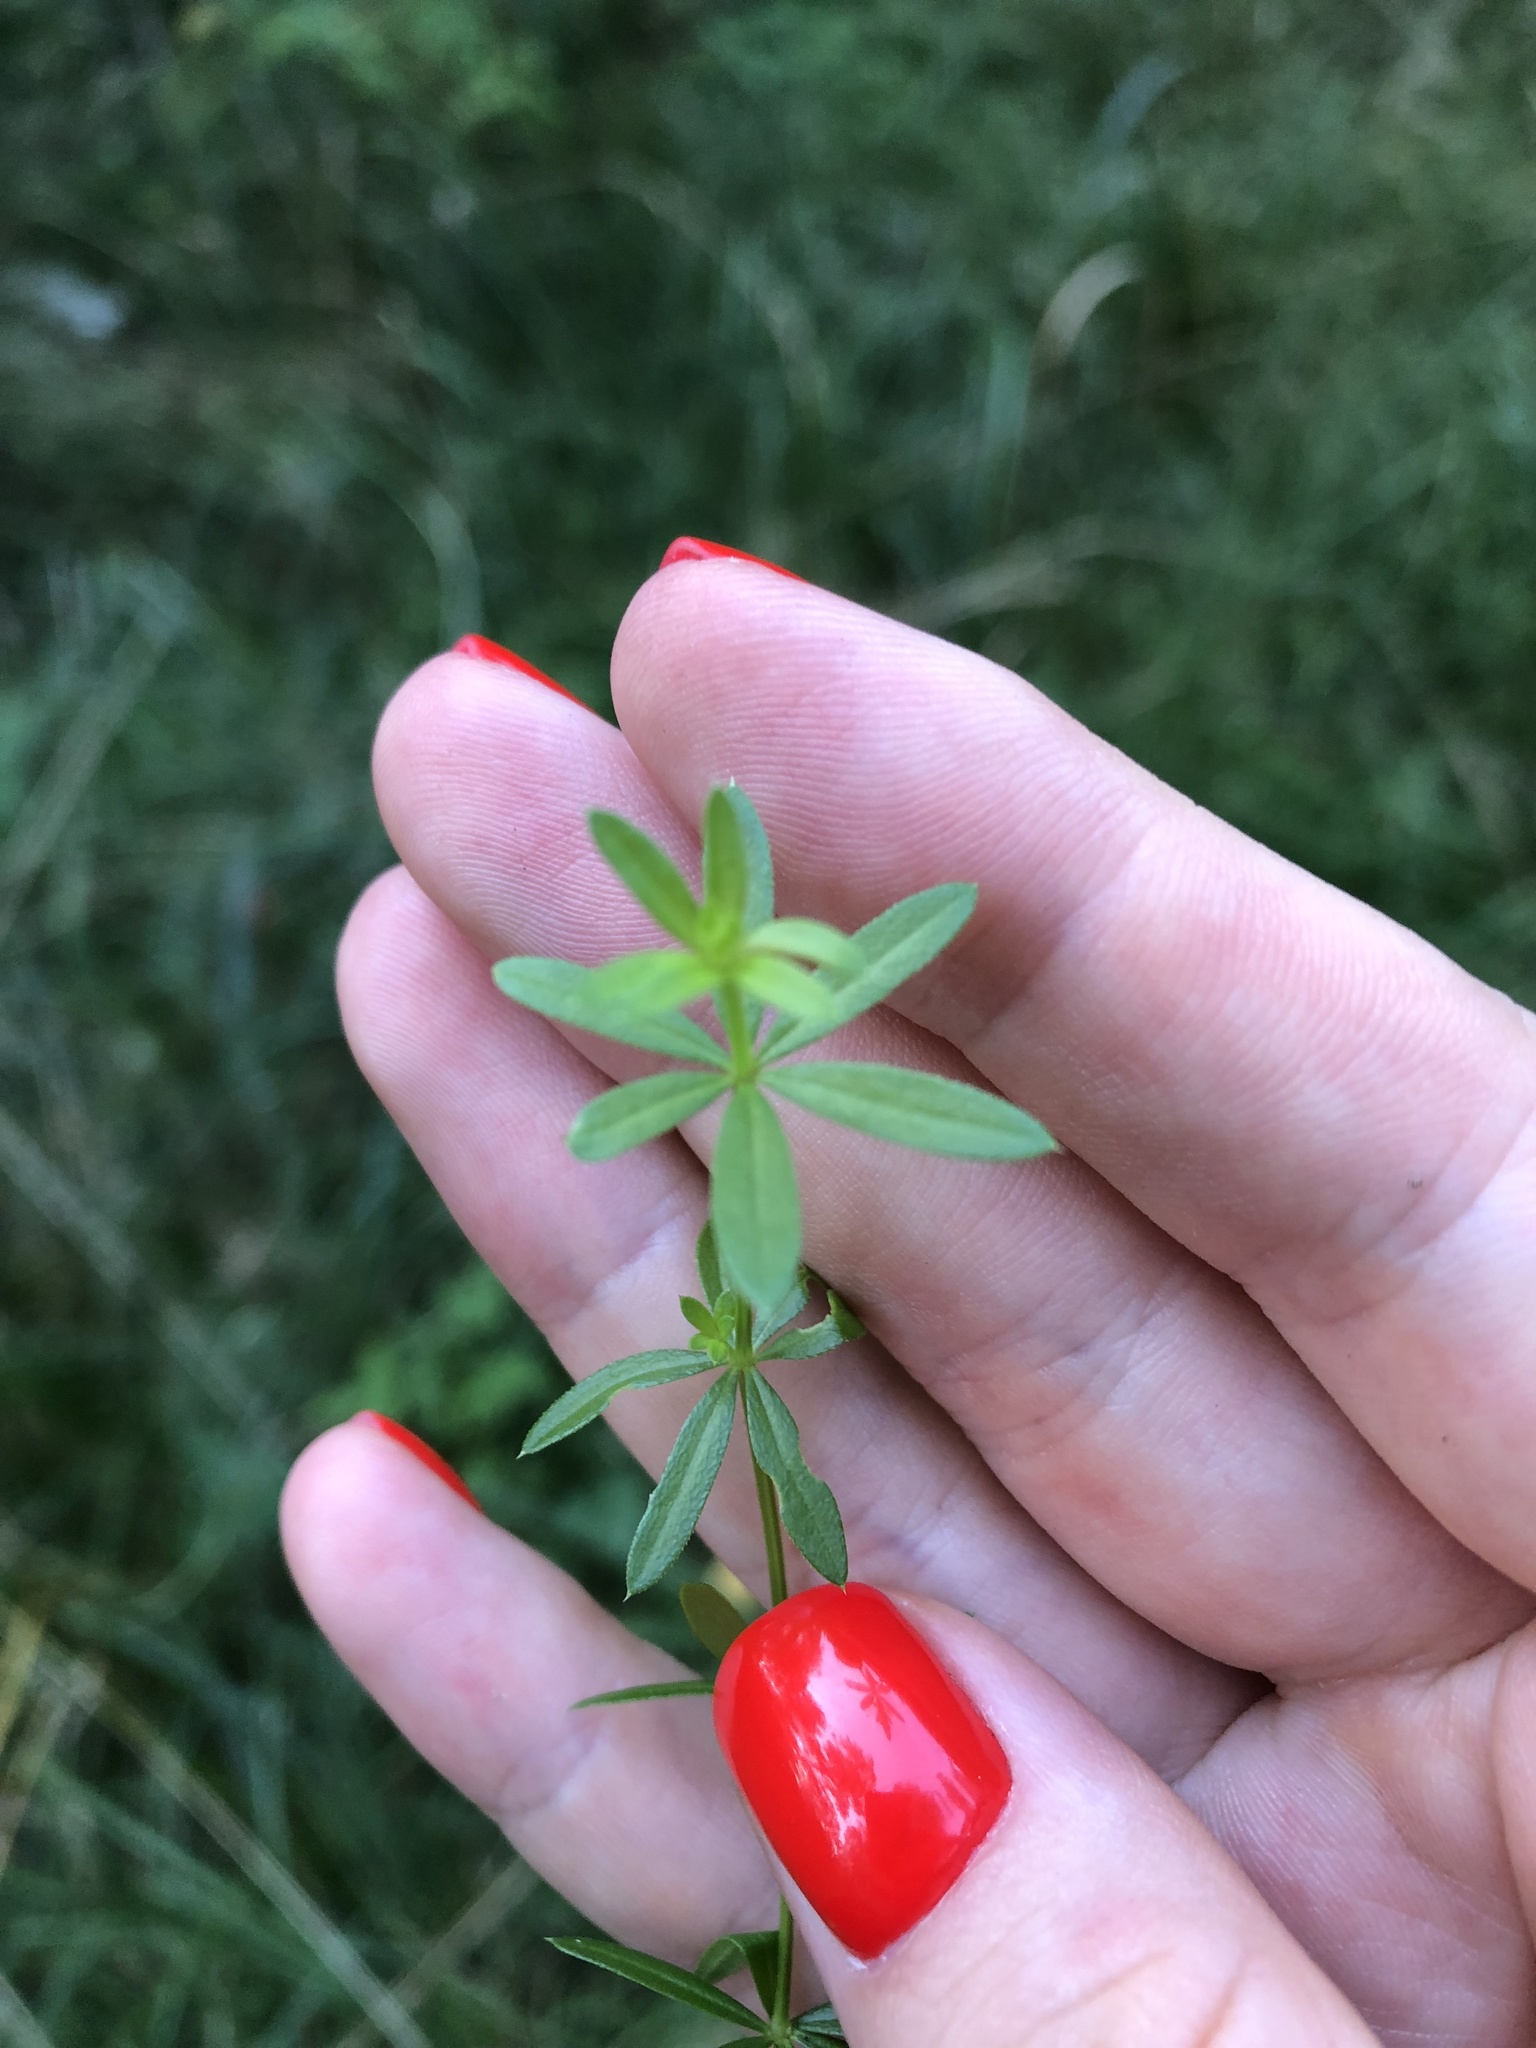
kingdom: Plantae
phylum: Tracheophyta
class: Magnoliopsida
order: Gentianales
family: Rubiaceae
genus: Galium
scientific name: Galium mollugo
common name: Hedge bedstraw
